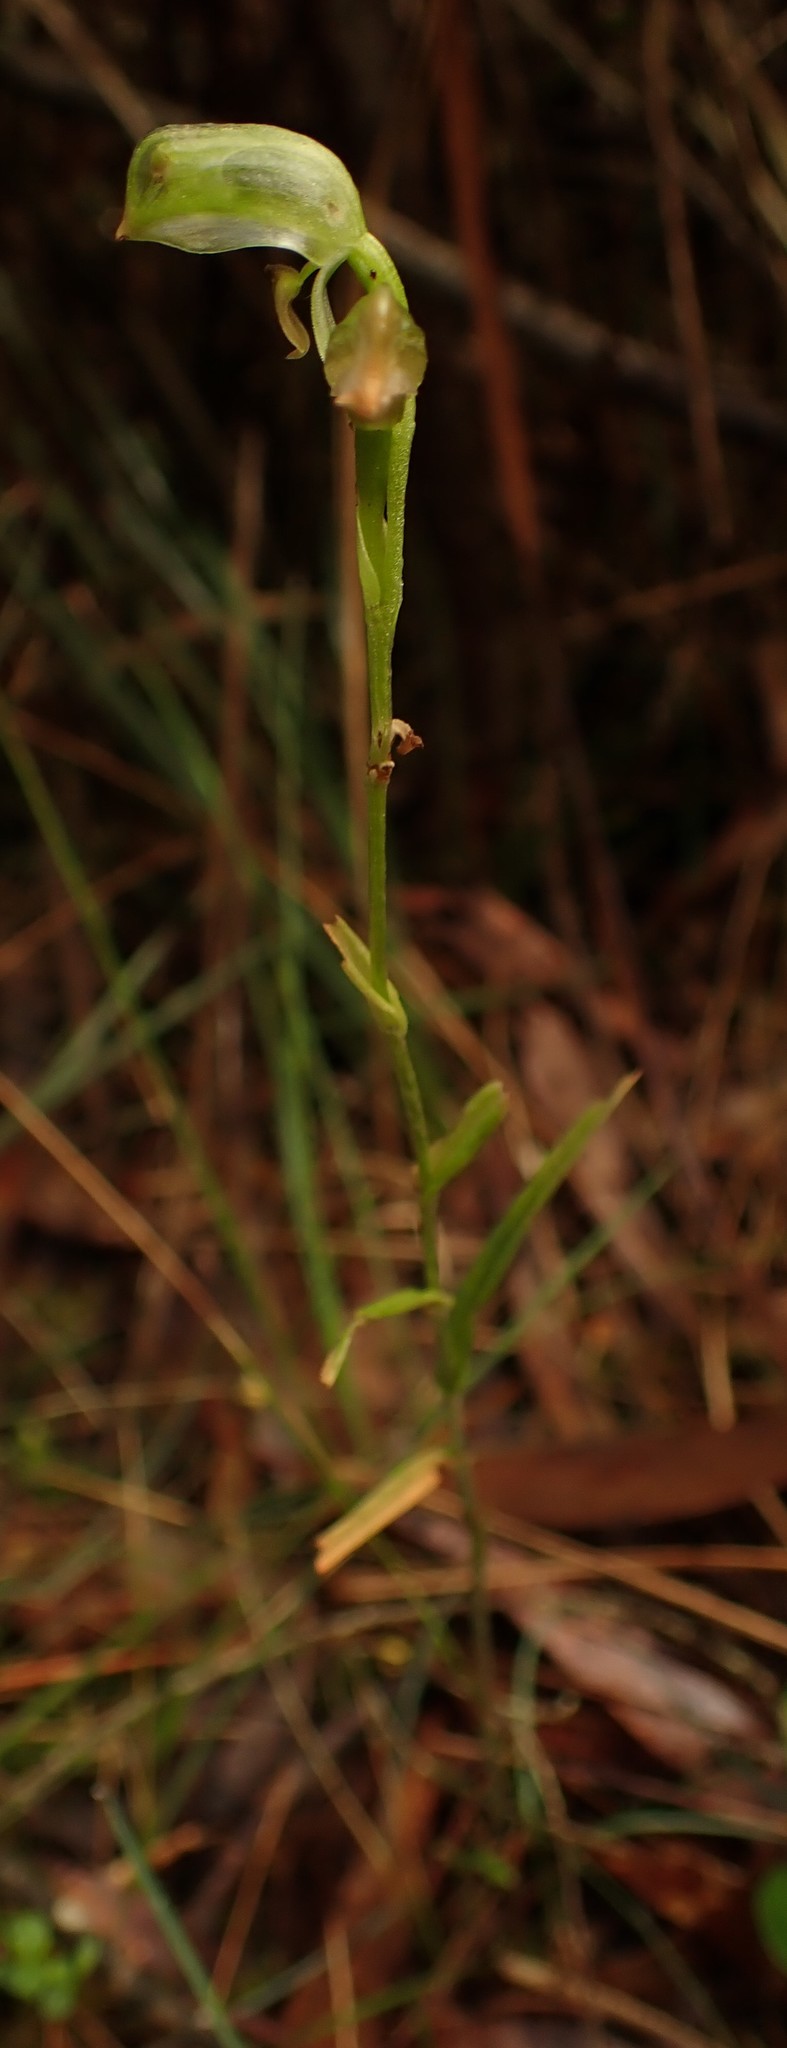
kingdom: Plantae
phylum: Tracheophyta
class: Liliopsida
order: Asparagales
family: Orchidaceae
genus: Pterostylis
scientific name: Pterostylis melagramma
